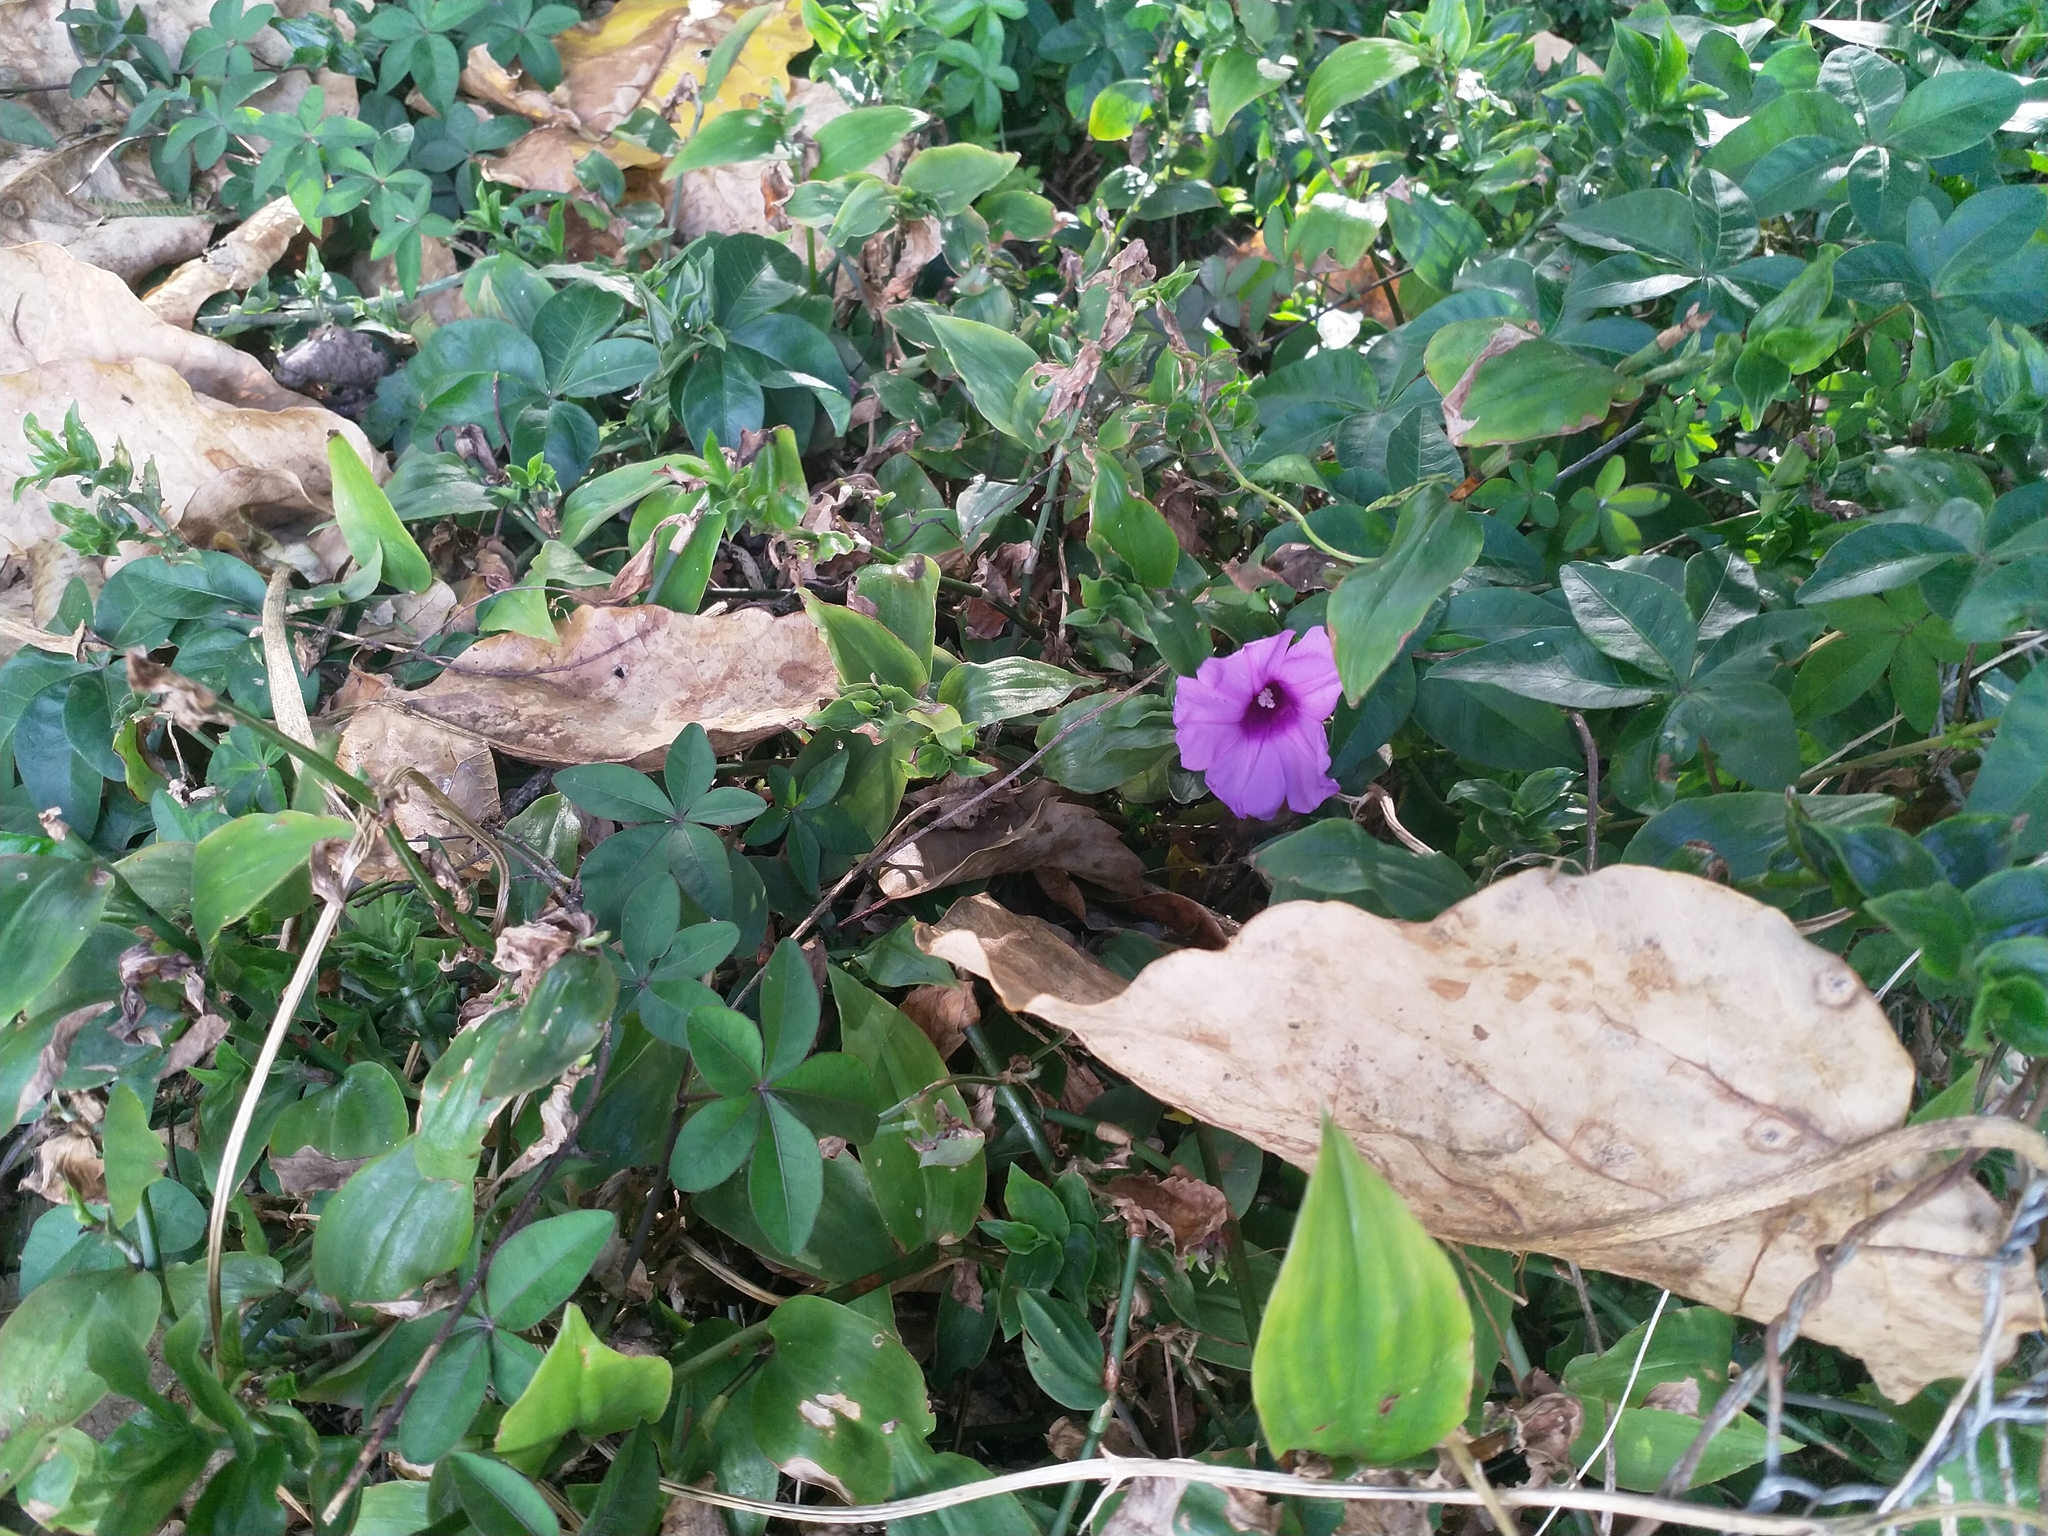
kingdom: Plantae
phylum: Tracheophyta
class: Magnoliopsida
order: Solanales
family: Convolvulaceae
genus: Ipomoea
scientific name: Ipomoea cairica
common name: Mile a minute vine
